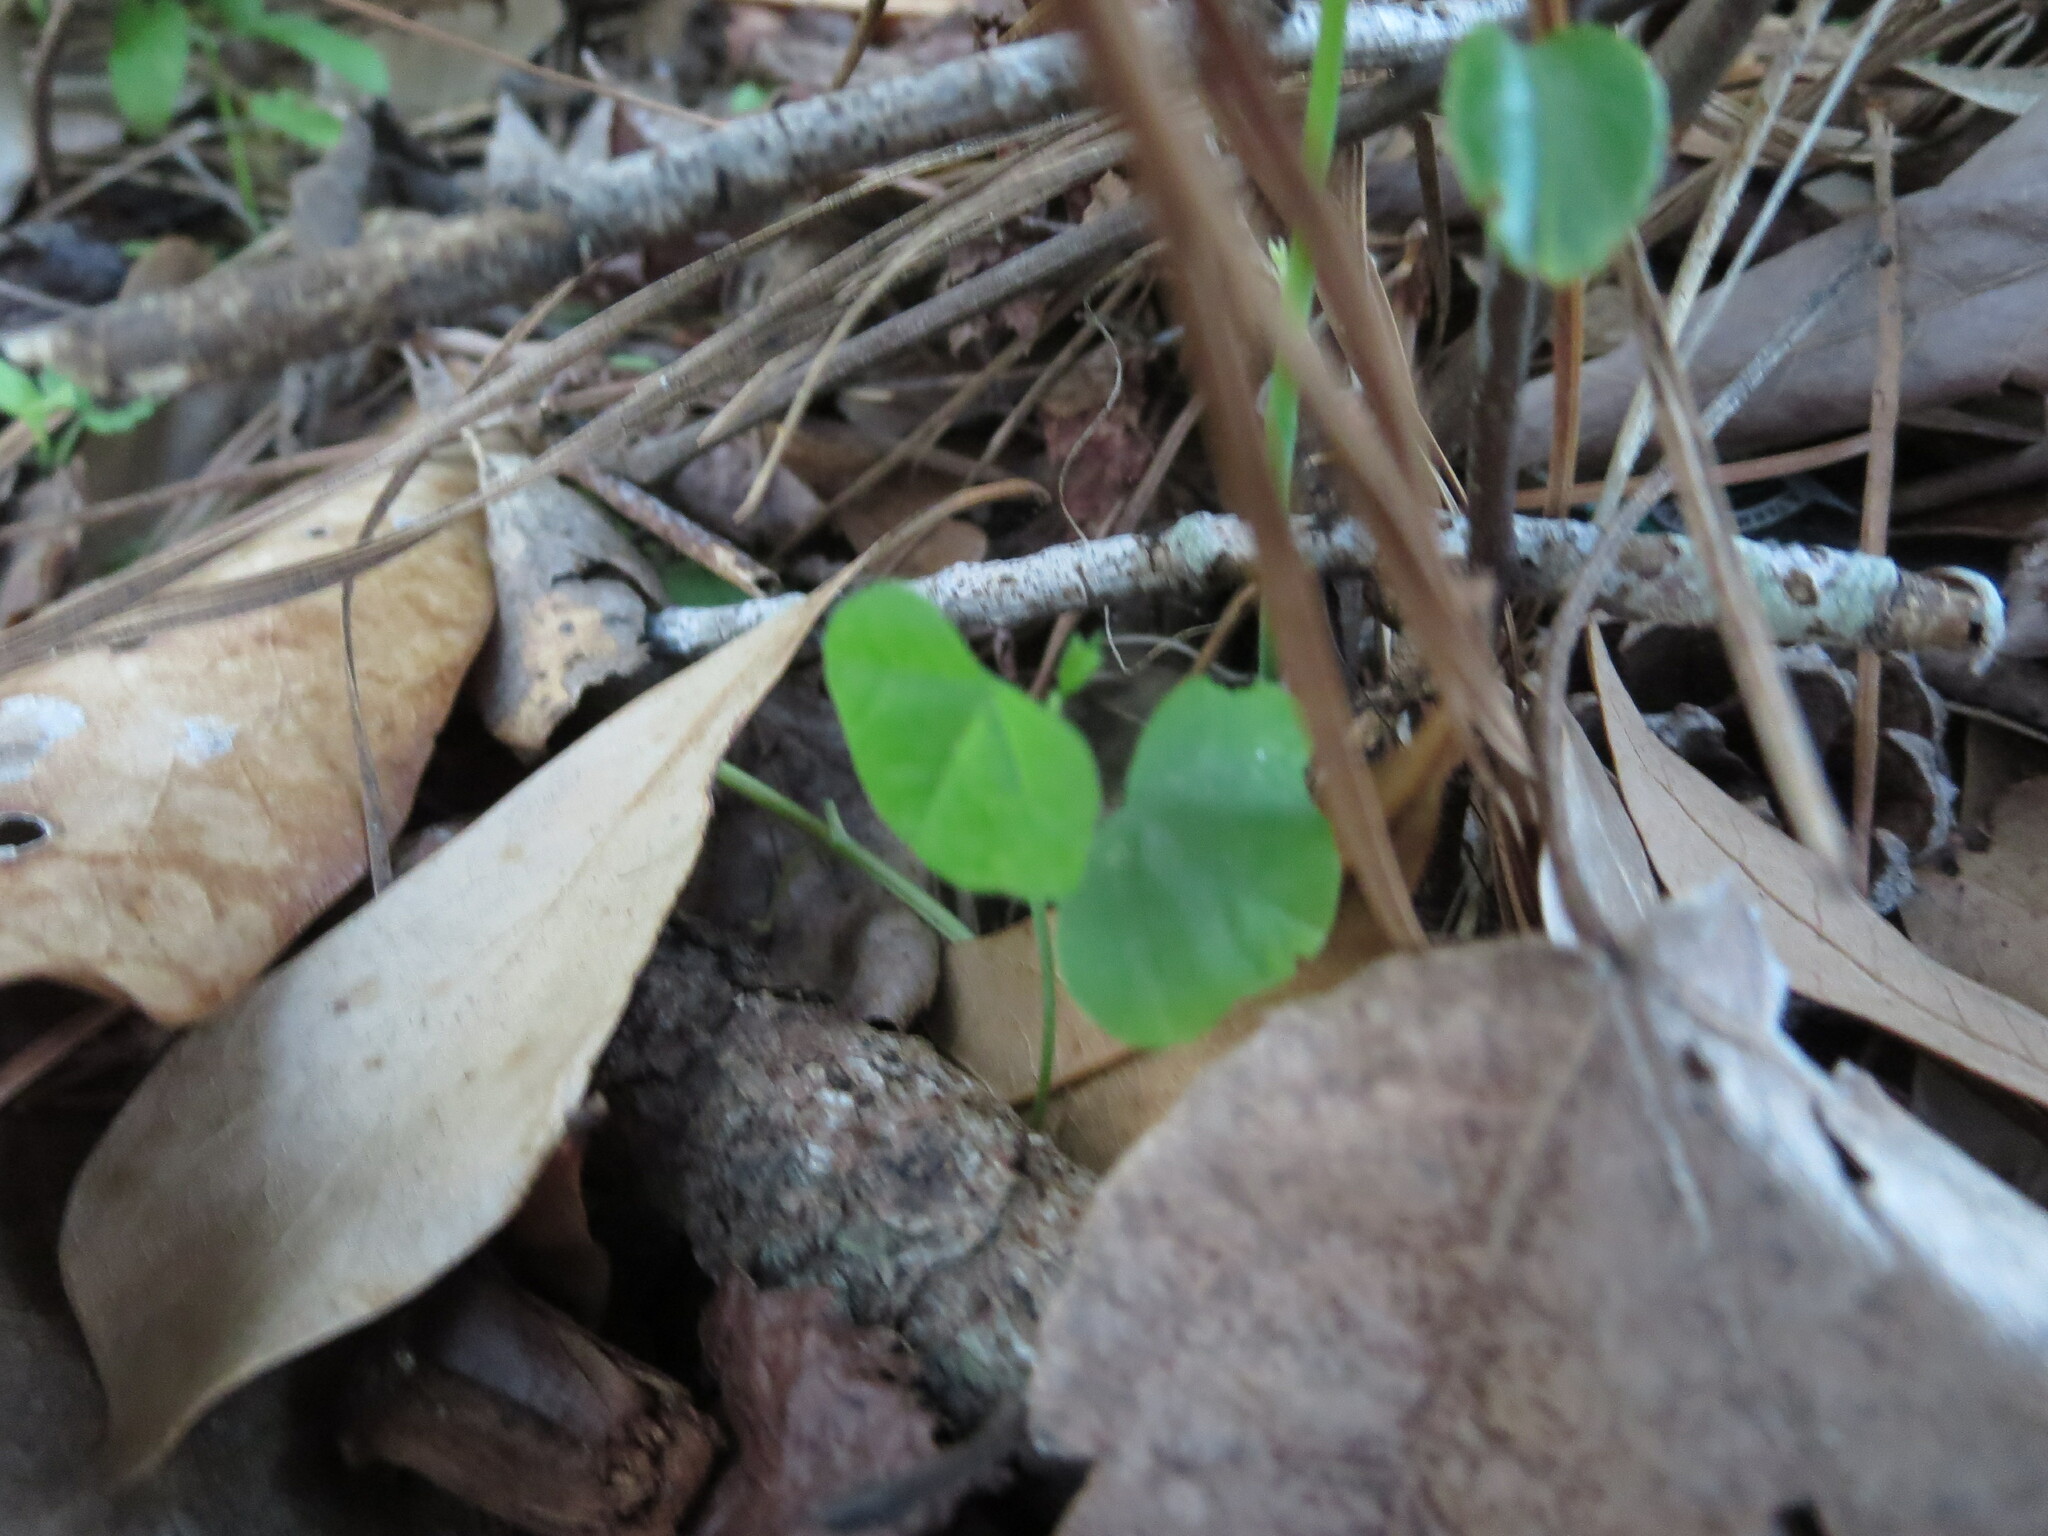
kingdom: Plantae
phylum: Tracheophyta
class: Magnoliopsida
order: Malpighiales
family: Passifloraceae
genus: Passiflora
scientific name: Passiflora lutea
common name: Yellow passionflower
